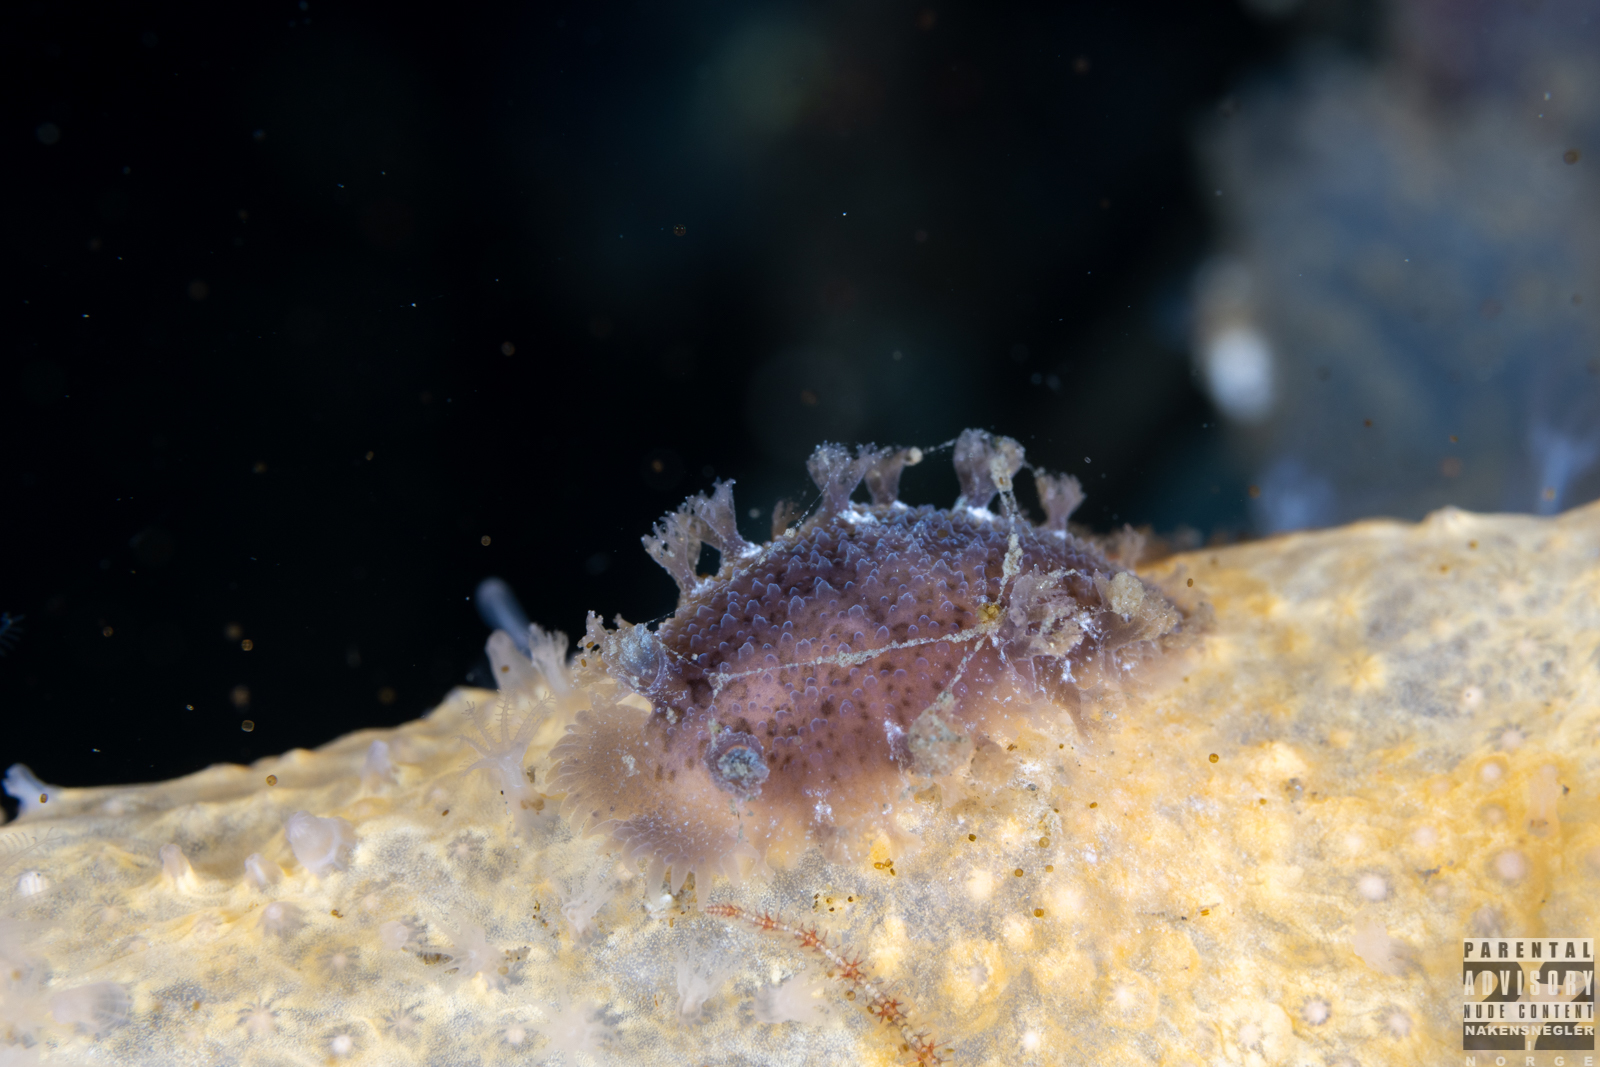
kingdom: Animalia
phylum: Mollusca
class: Gastropoda
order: Nudibranchia
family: Tritoniidae
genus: Tritonia
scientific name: Tritonia hombergii
